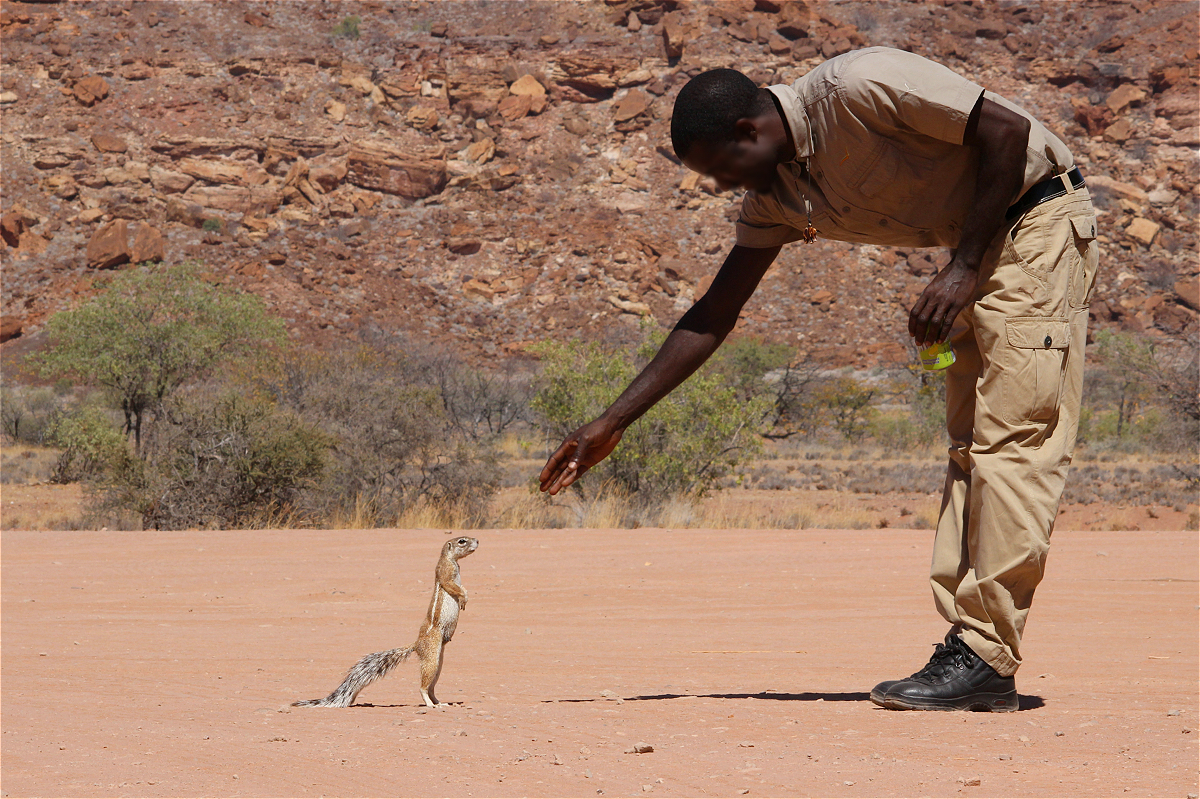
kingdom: Animalia
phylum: Chordata
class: Mammalia
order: Rodentia
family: Sciuridae
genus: Xerus
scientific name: Xerus princeps
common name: Damara ground squirrel
